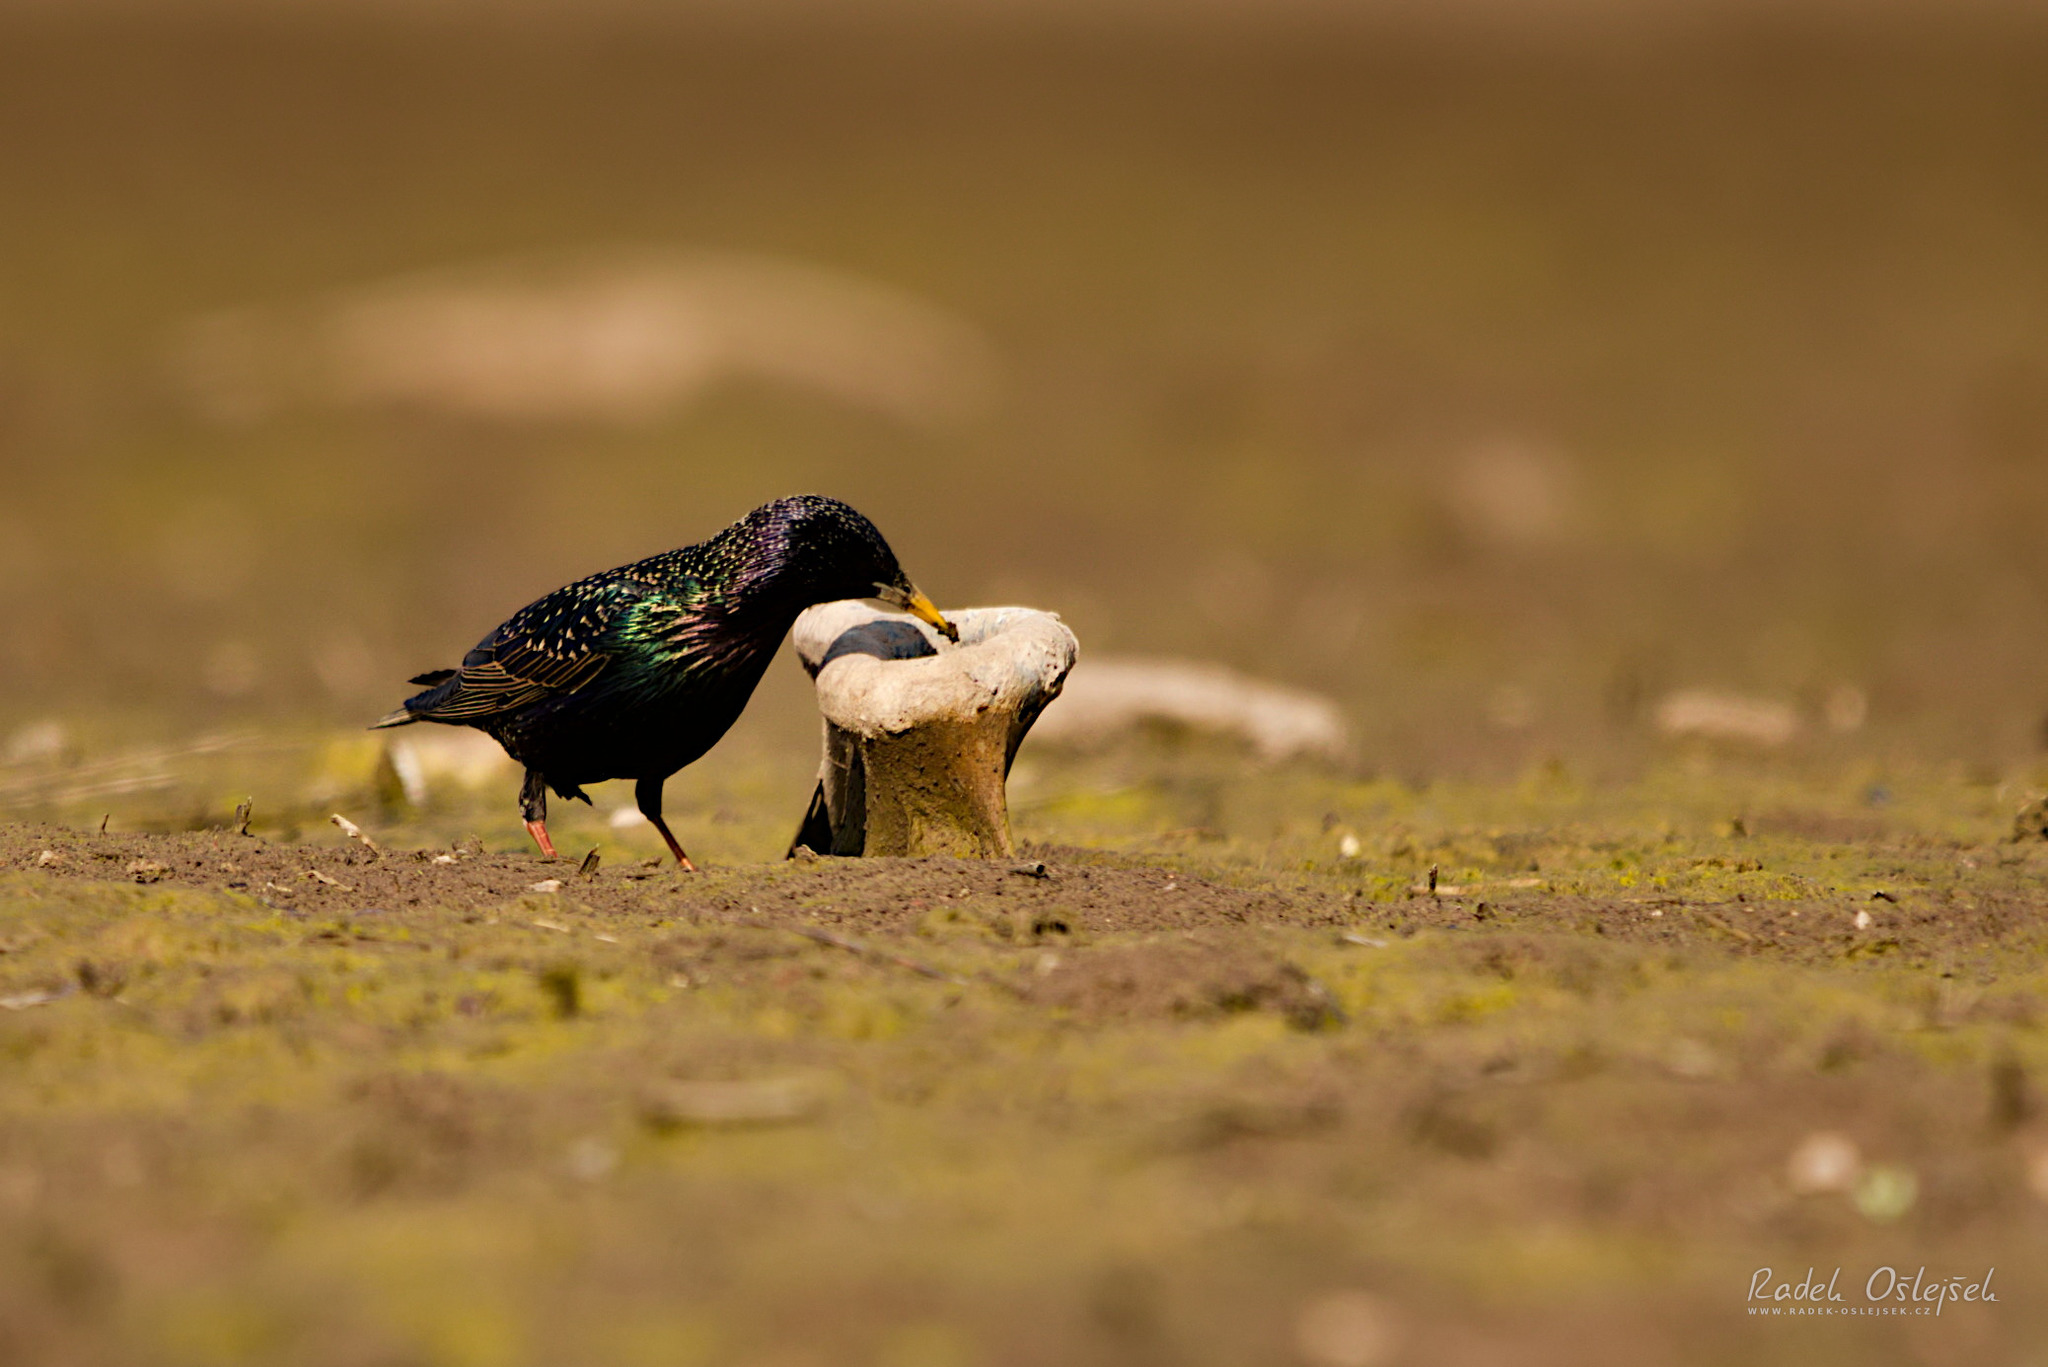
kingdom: Animalia
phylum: Chordata
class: Aves
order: Passeriformes
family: Sturnidae
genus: Sturnus
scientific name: Sturnus vulgaris
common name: Common starling
